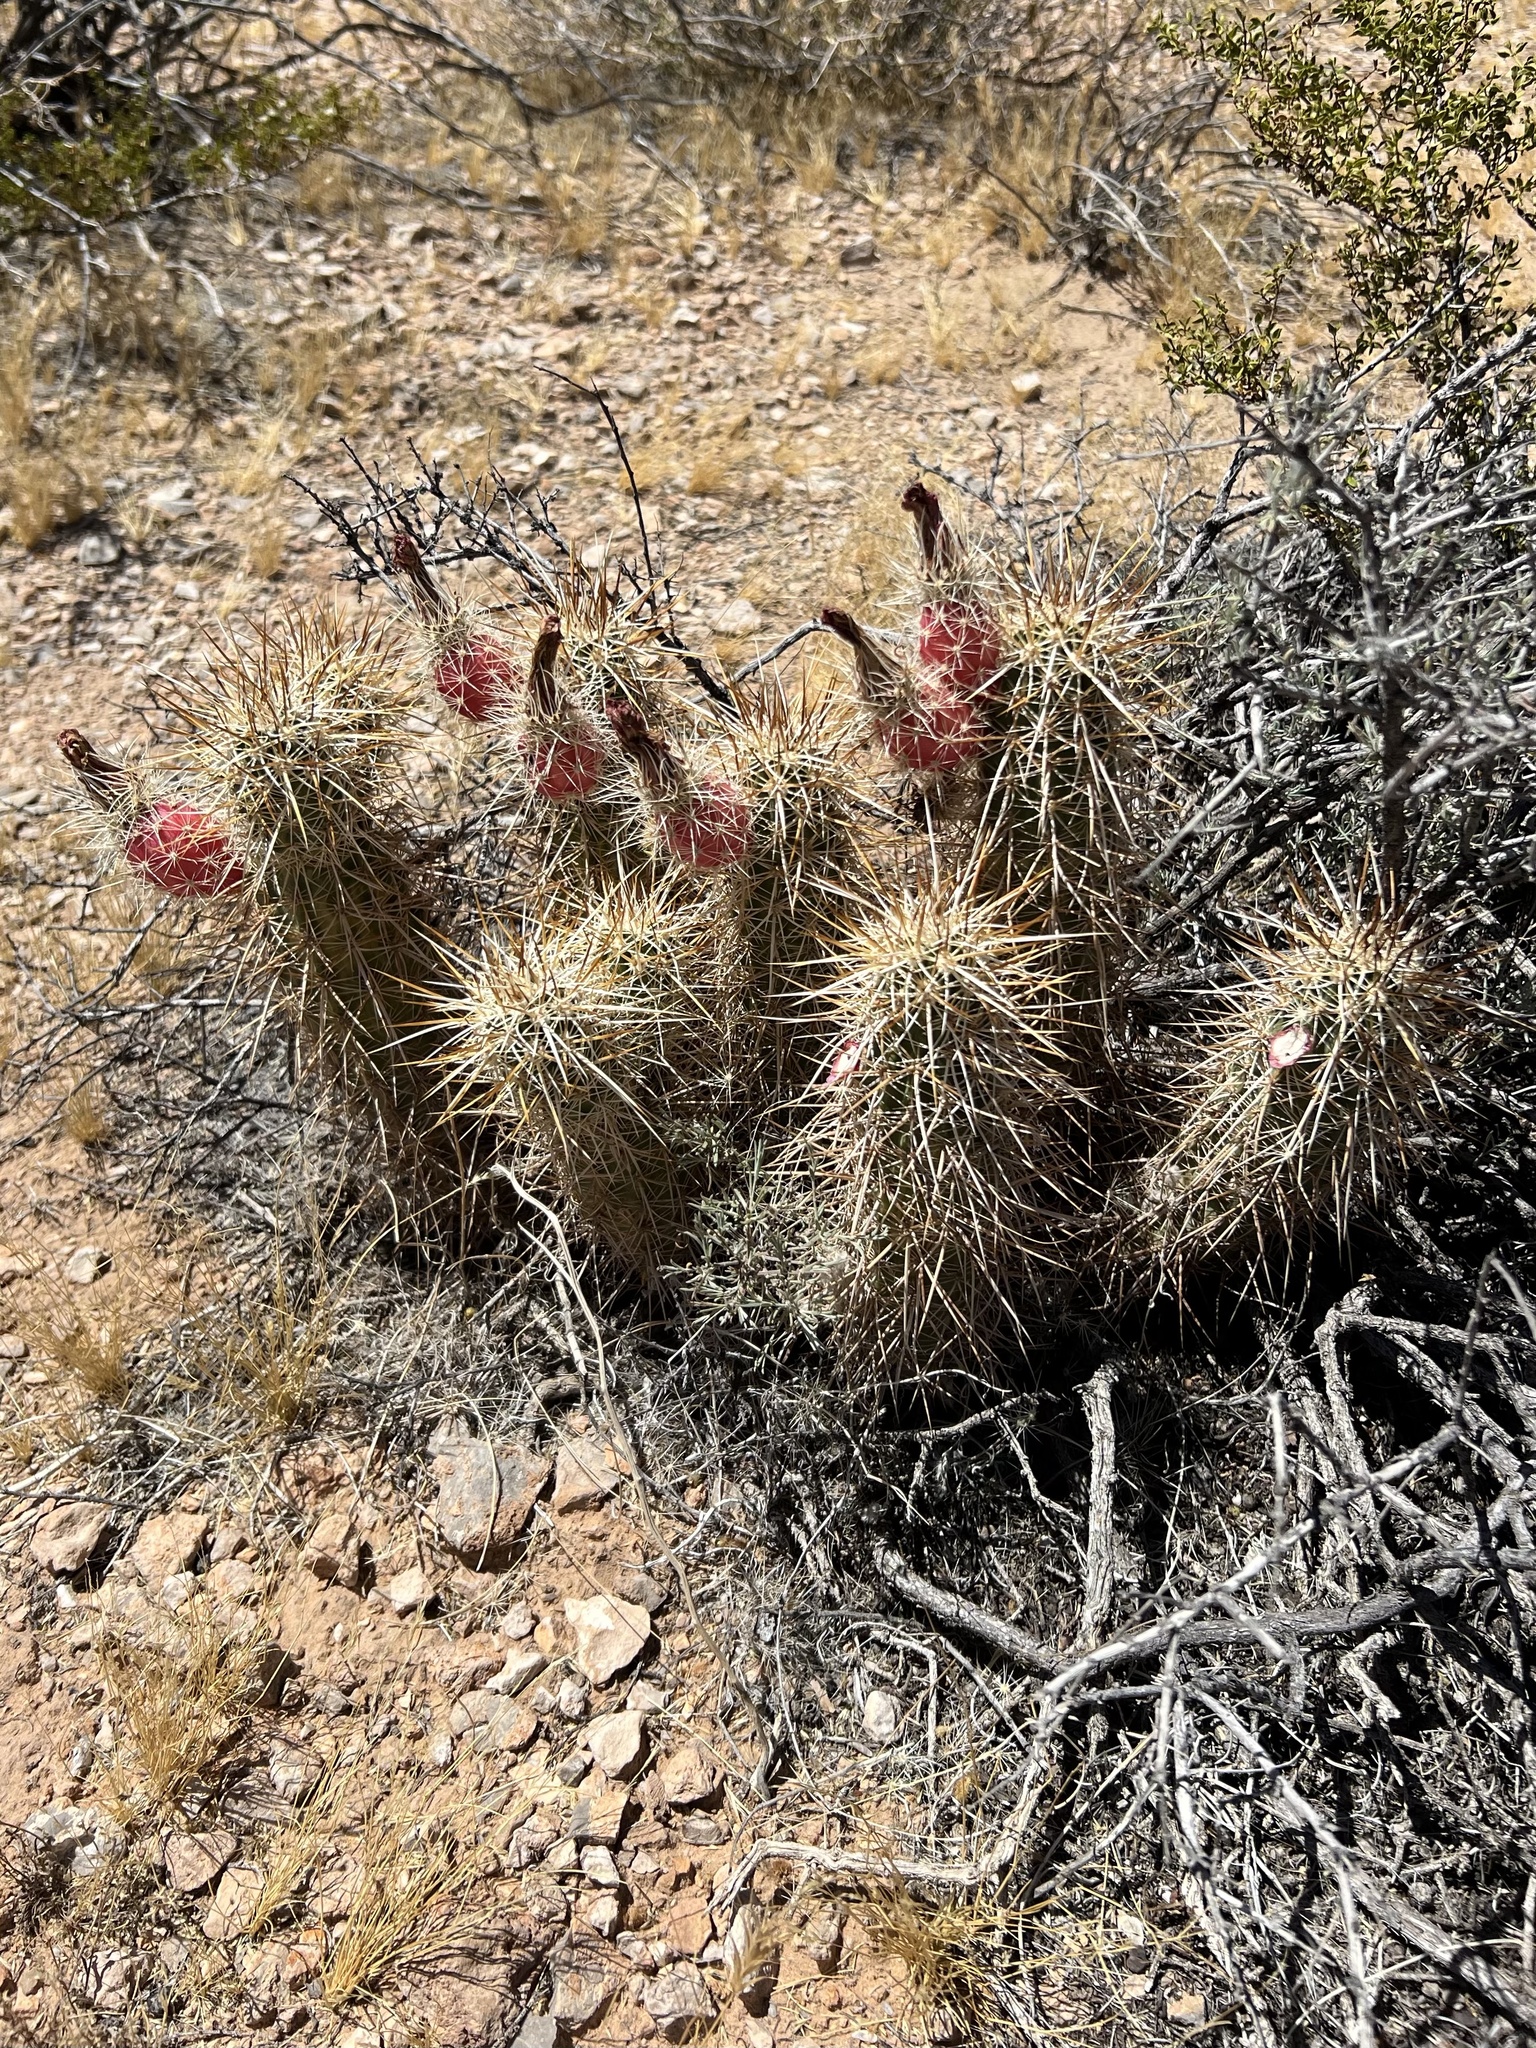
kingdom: Plantae
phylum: Tracheophyta
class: Magnoliopsida
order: Caryophyllales
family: Cactaceae
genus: Echinocereus
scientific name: Echinocereus engelmannii
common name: Engelmann's hedgehog cactus
